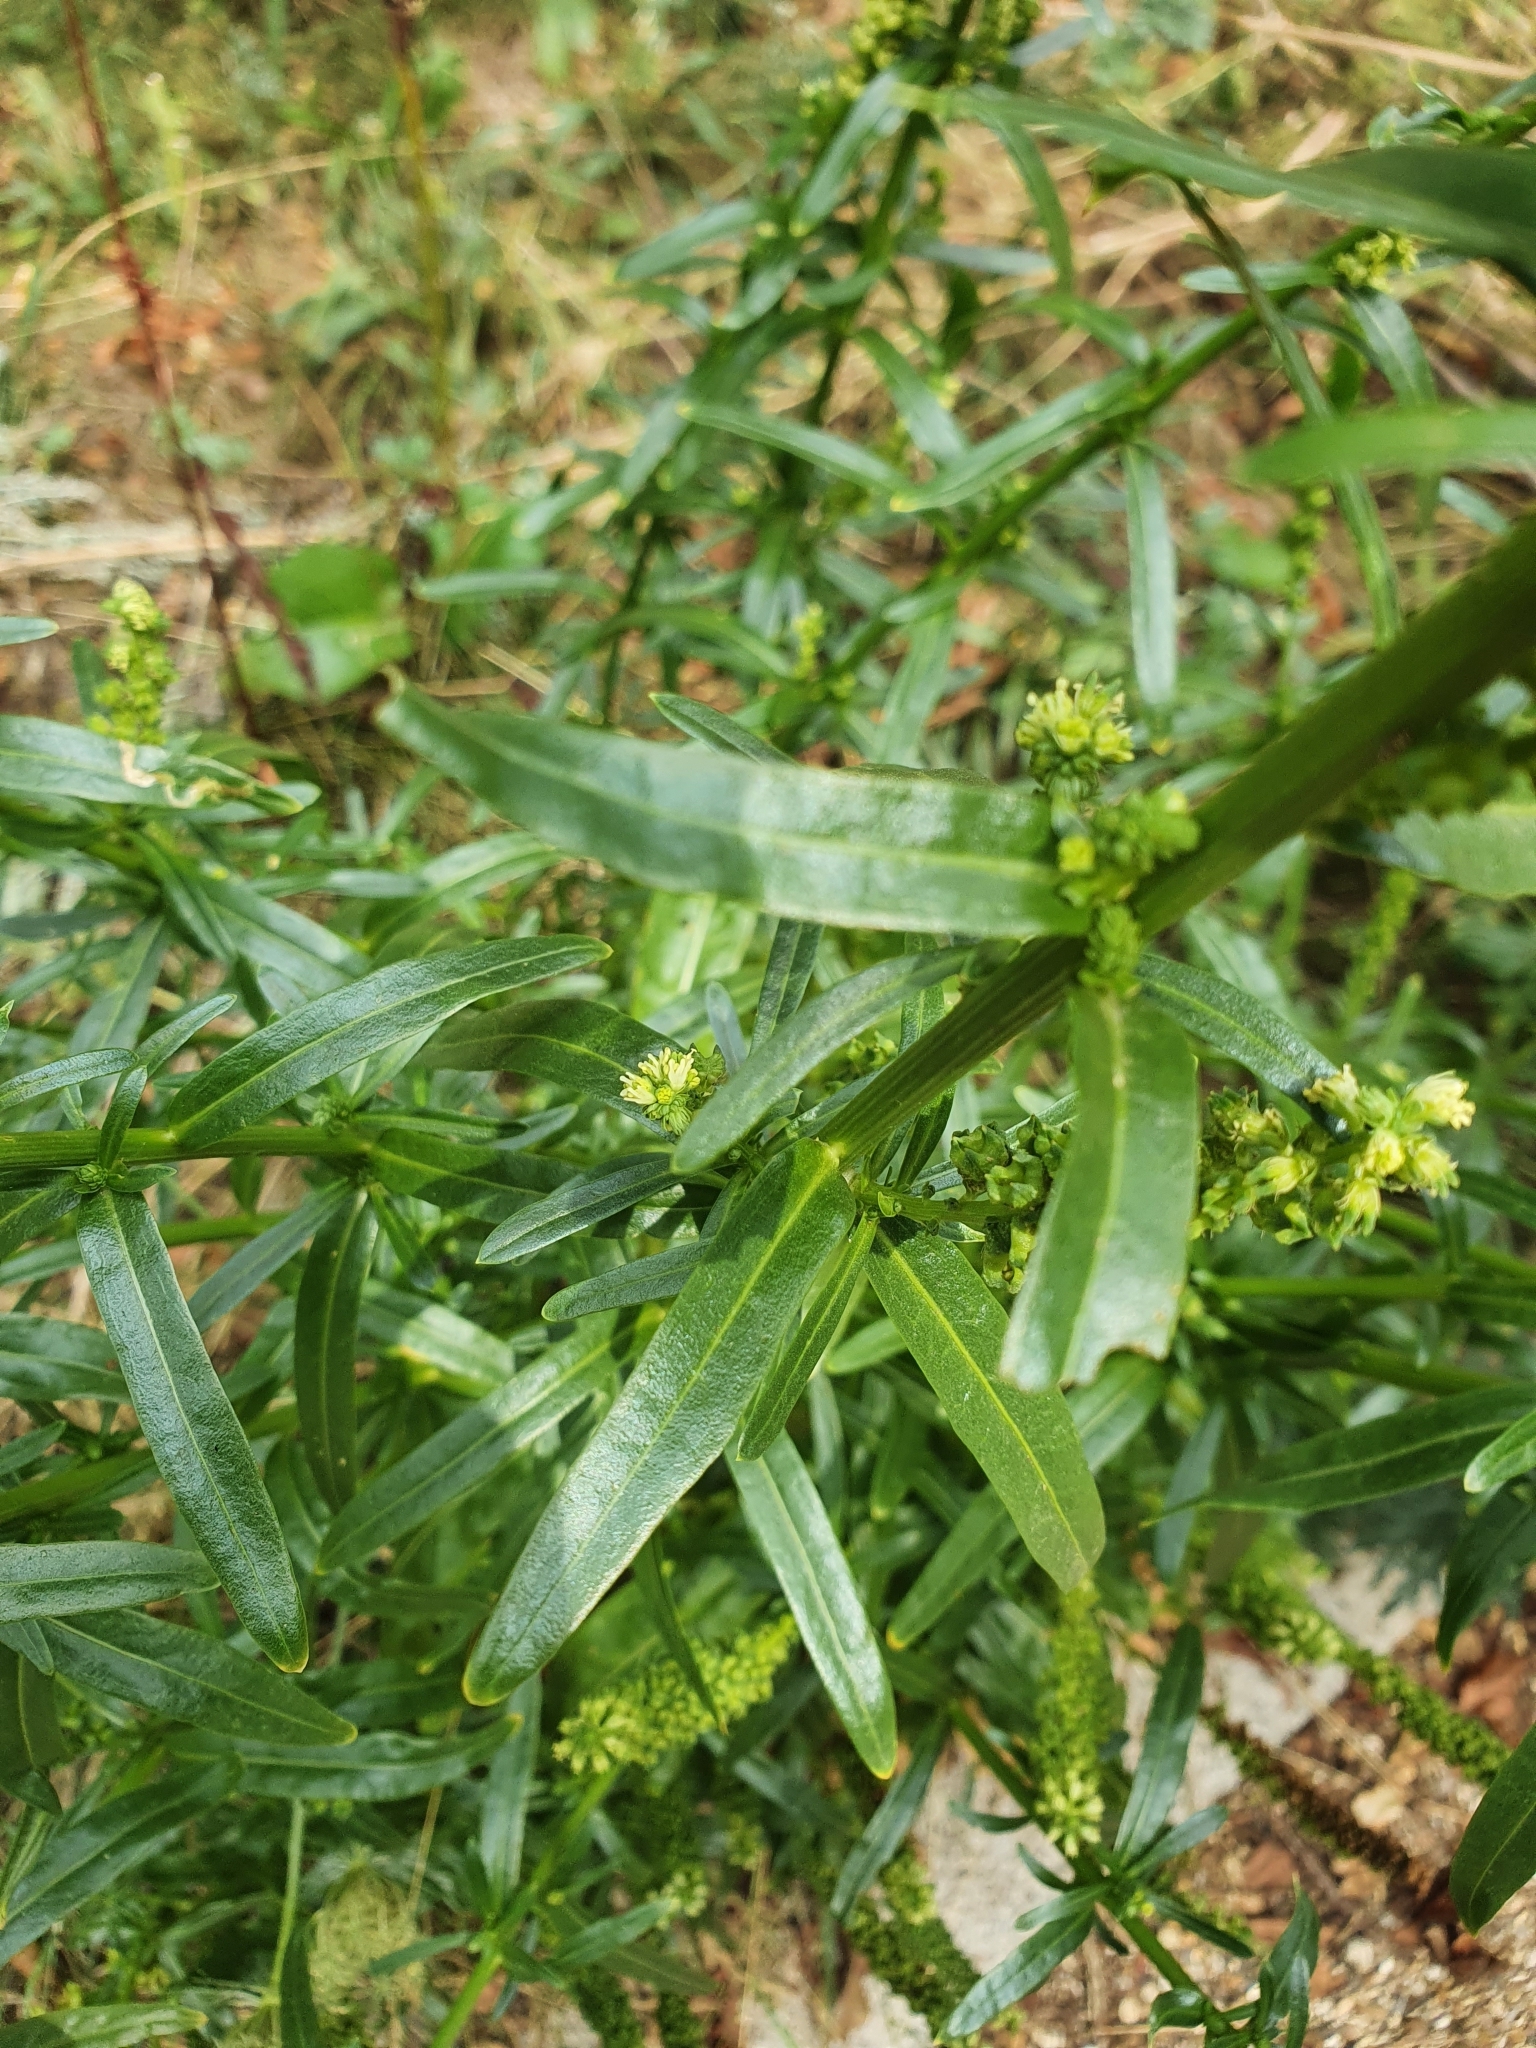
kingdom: Plantae
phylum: Tracheophyta
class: Magnoliopsida
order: Brassicales
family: Resedaceae
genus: Reseda
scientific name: Reseda luteola
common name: Weld
